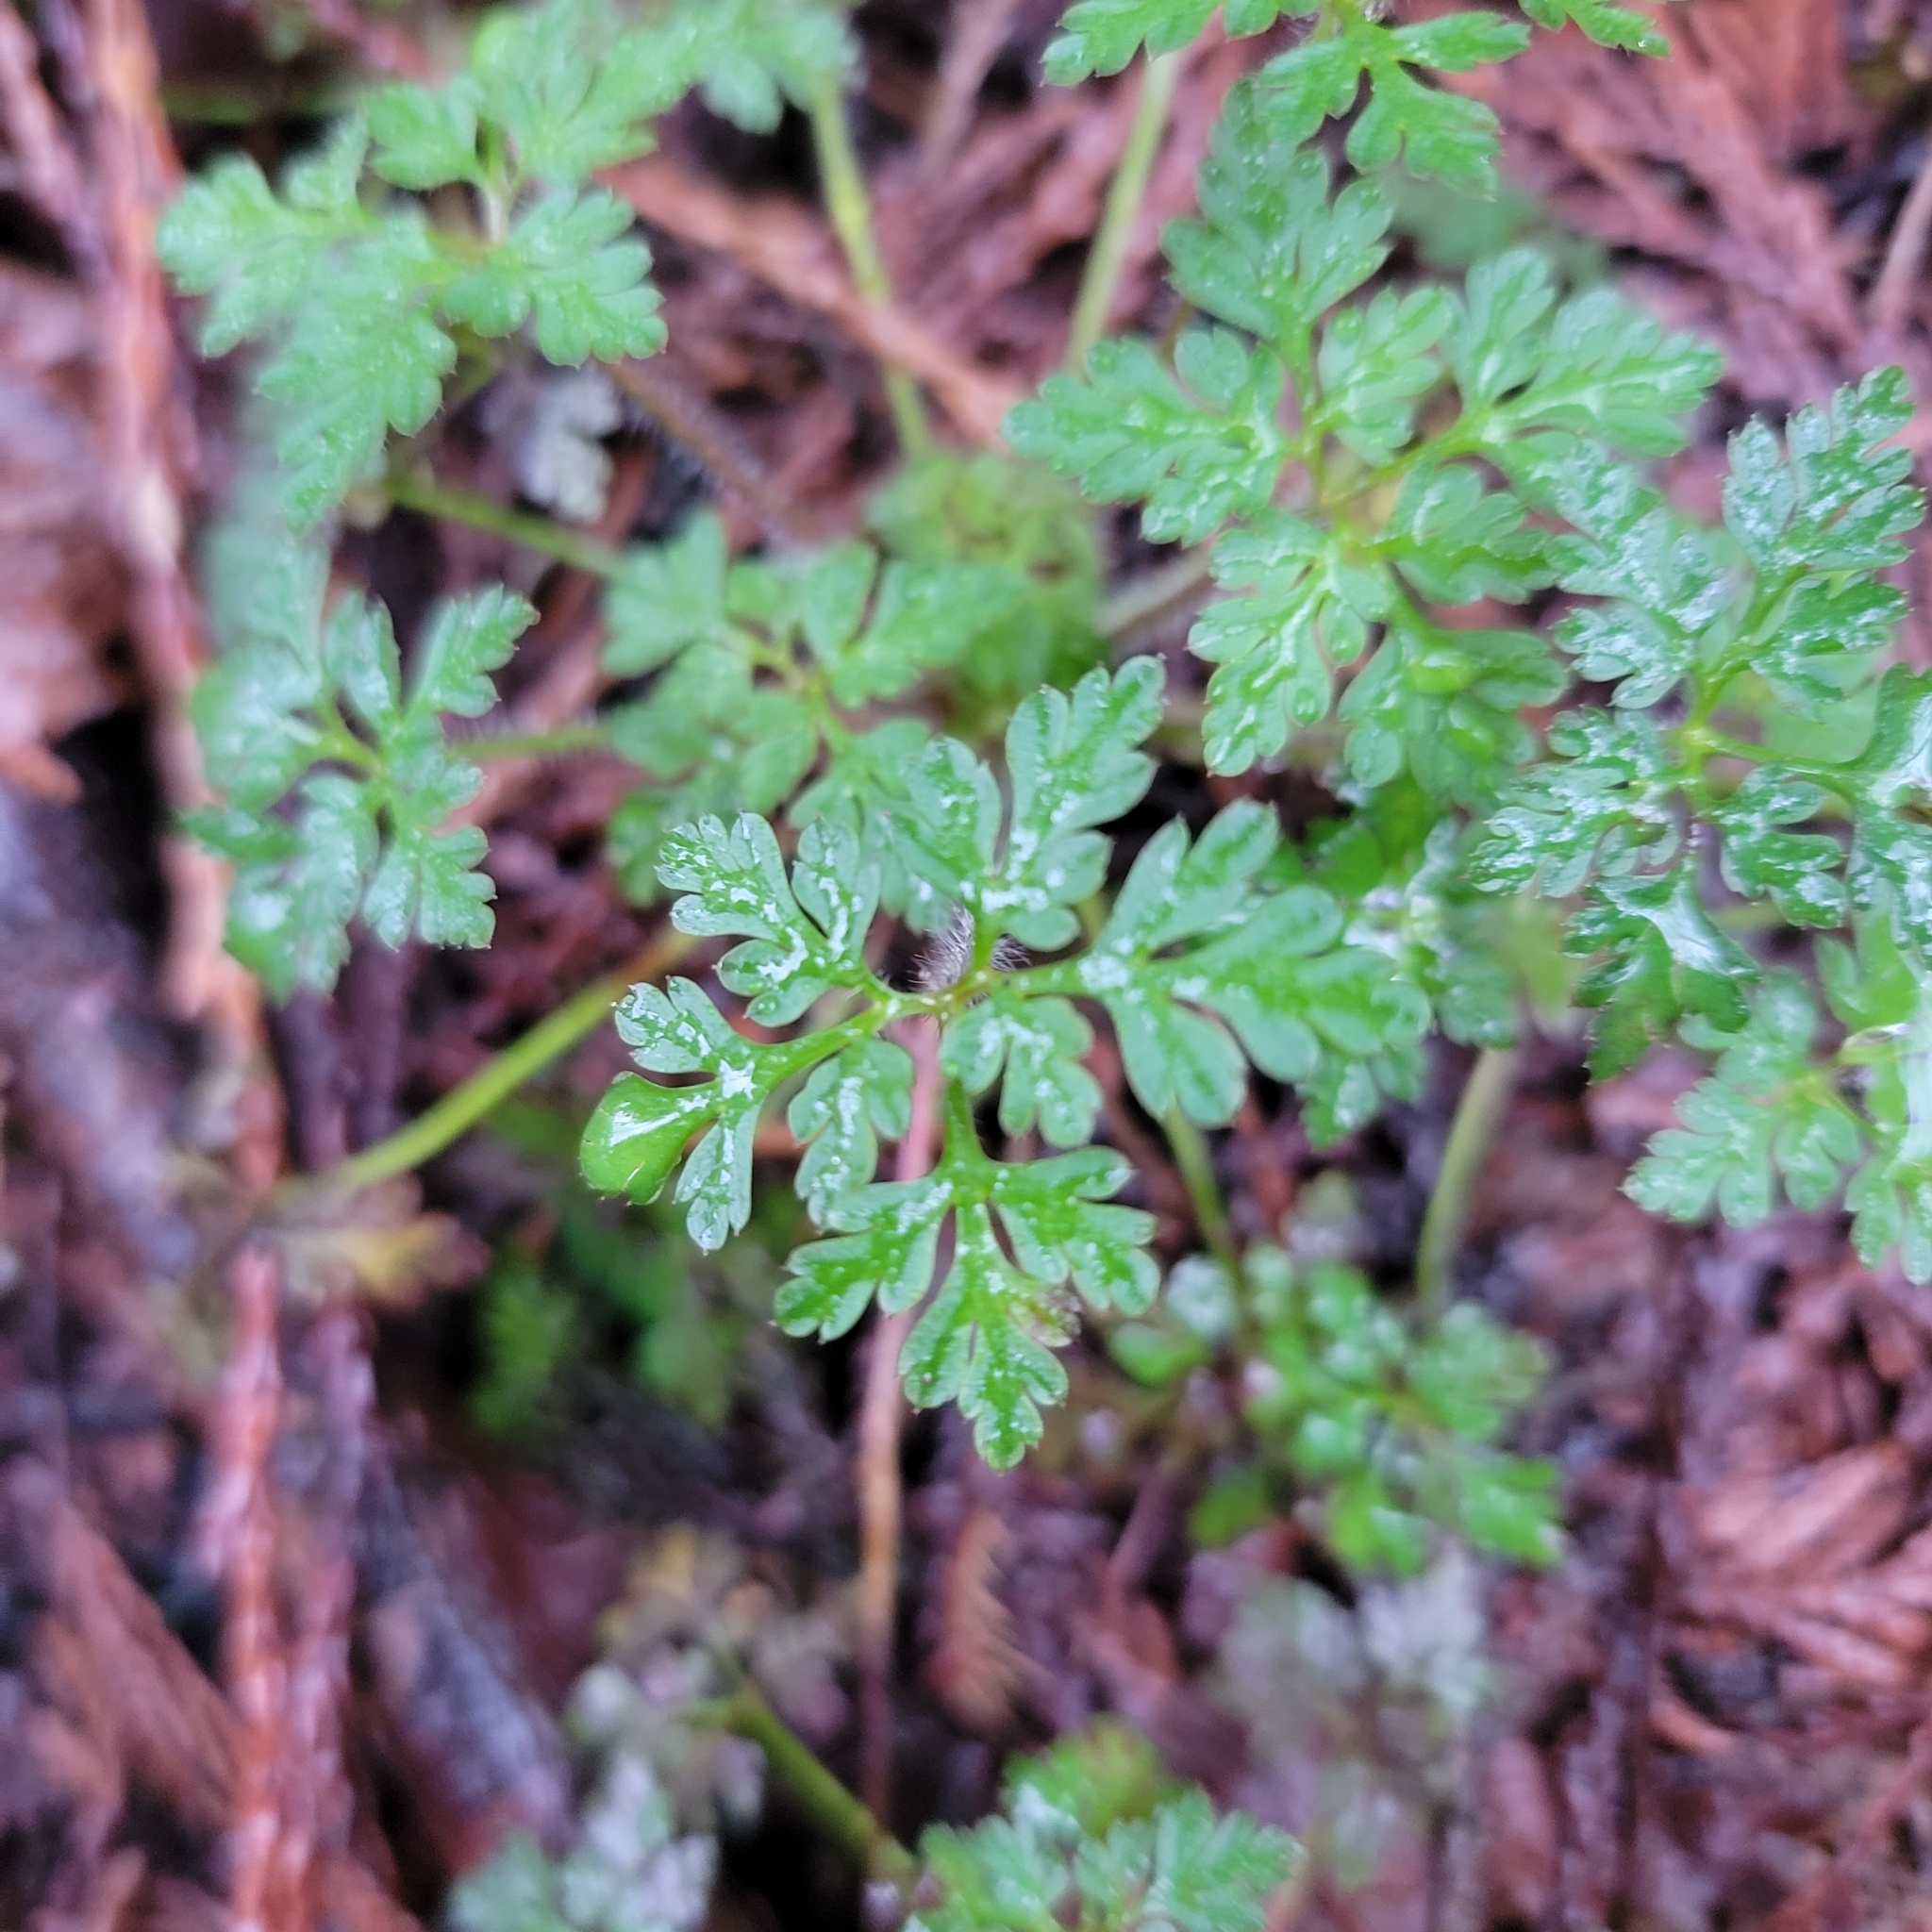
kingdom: Plantae
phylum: Tracheophyta
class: Magnoliopsida
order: Geraniales
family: Geraniaceae
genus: Geranium
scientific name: Geranium robertianum
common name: Herb-robert
